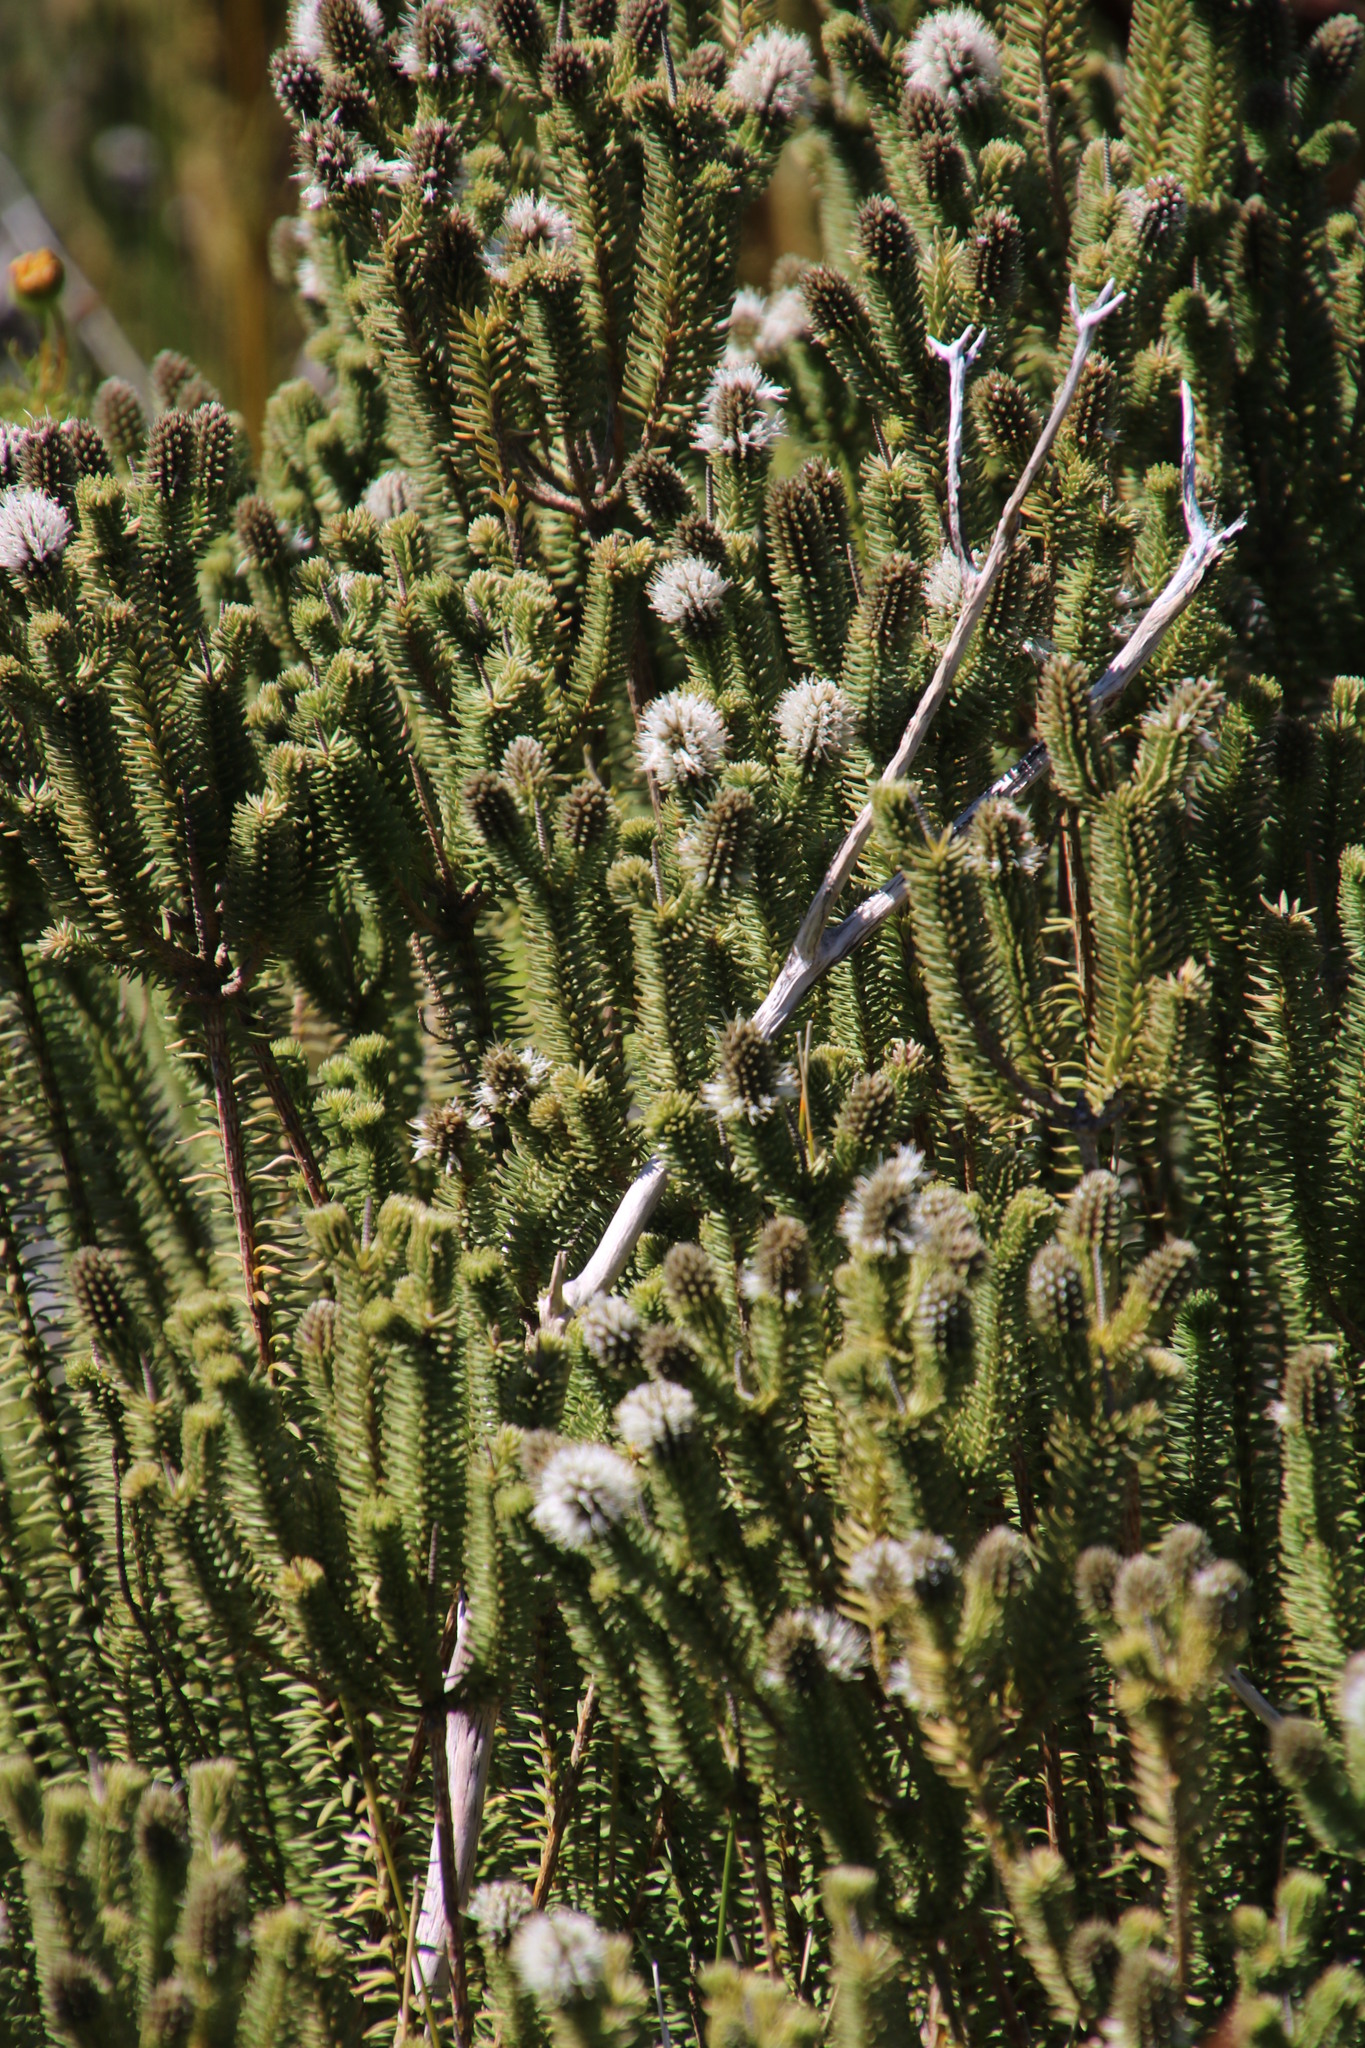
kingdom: Plantae
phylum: Tracheophyta
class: Magnoliopsida
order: Lamiales
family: Stilbaceae
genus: Stilbe
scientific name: Stilbe vestita
